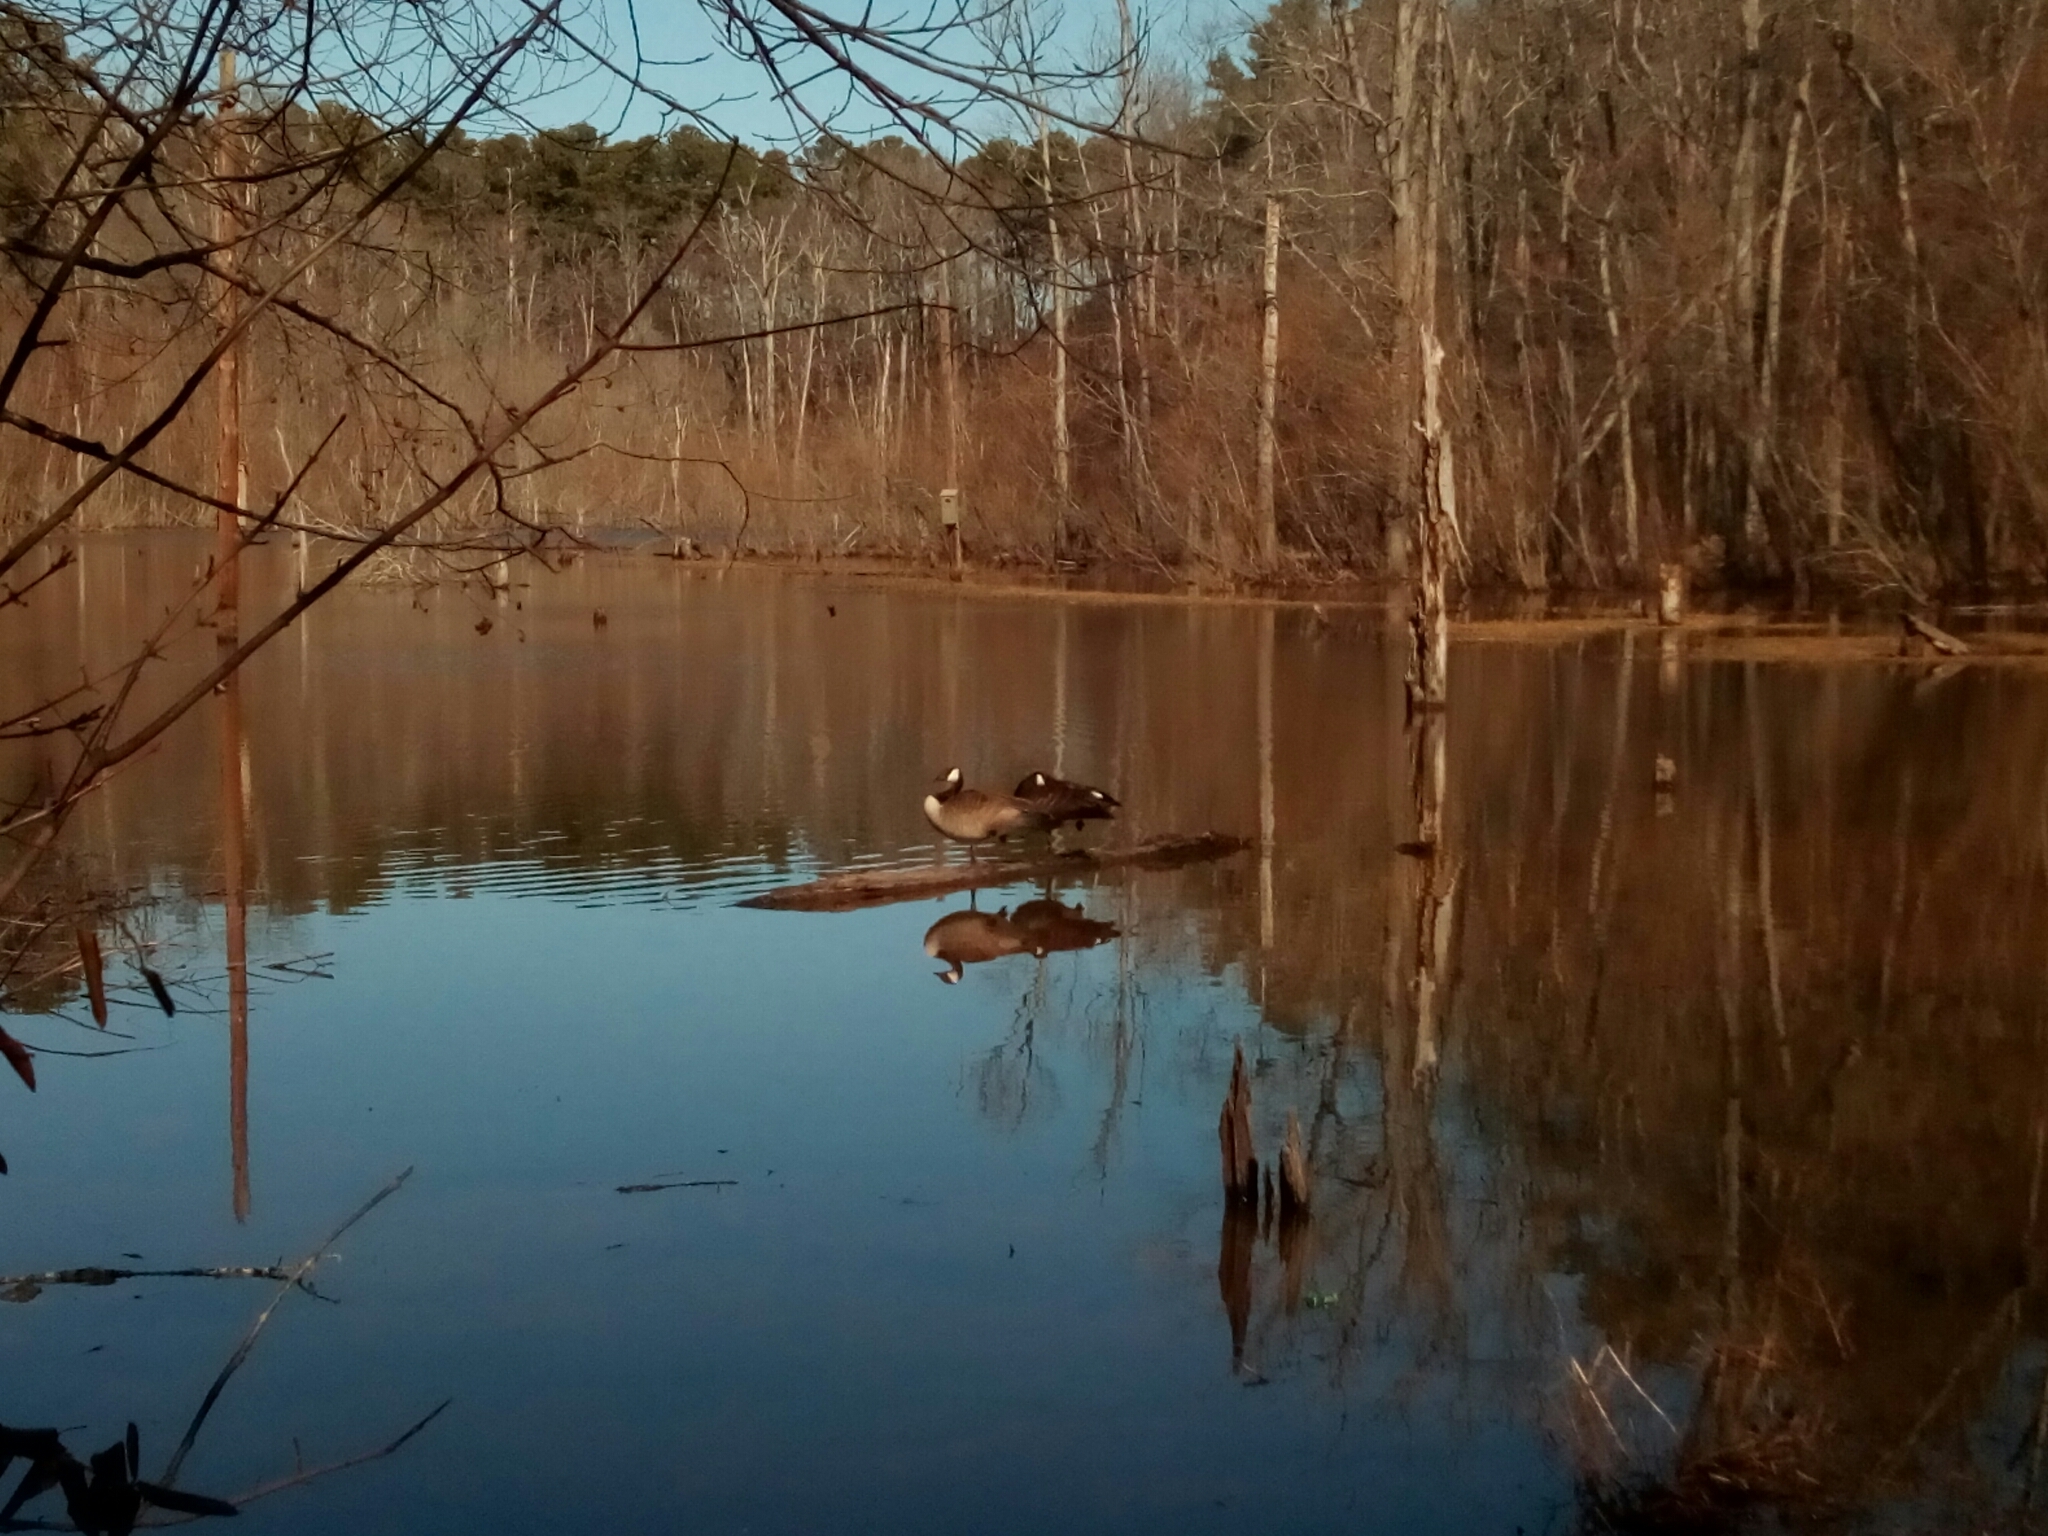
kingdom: Animalia
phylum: Chordata
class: Aves
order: Anseriformes
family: Anatidae
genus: Branta
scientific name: Branta canadensis
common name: Canada goose
